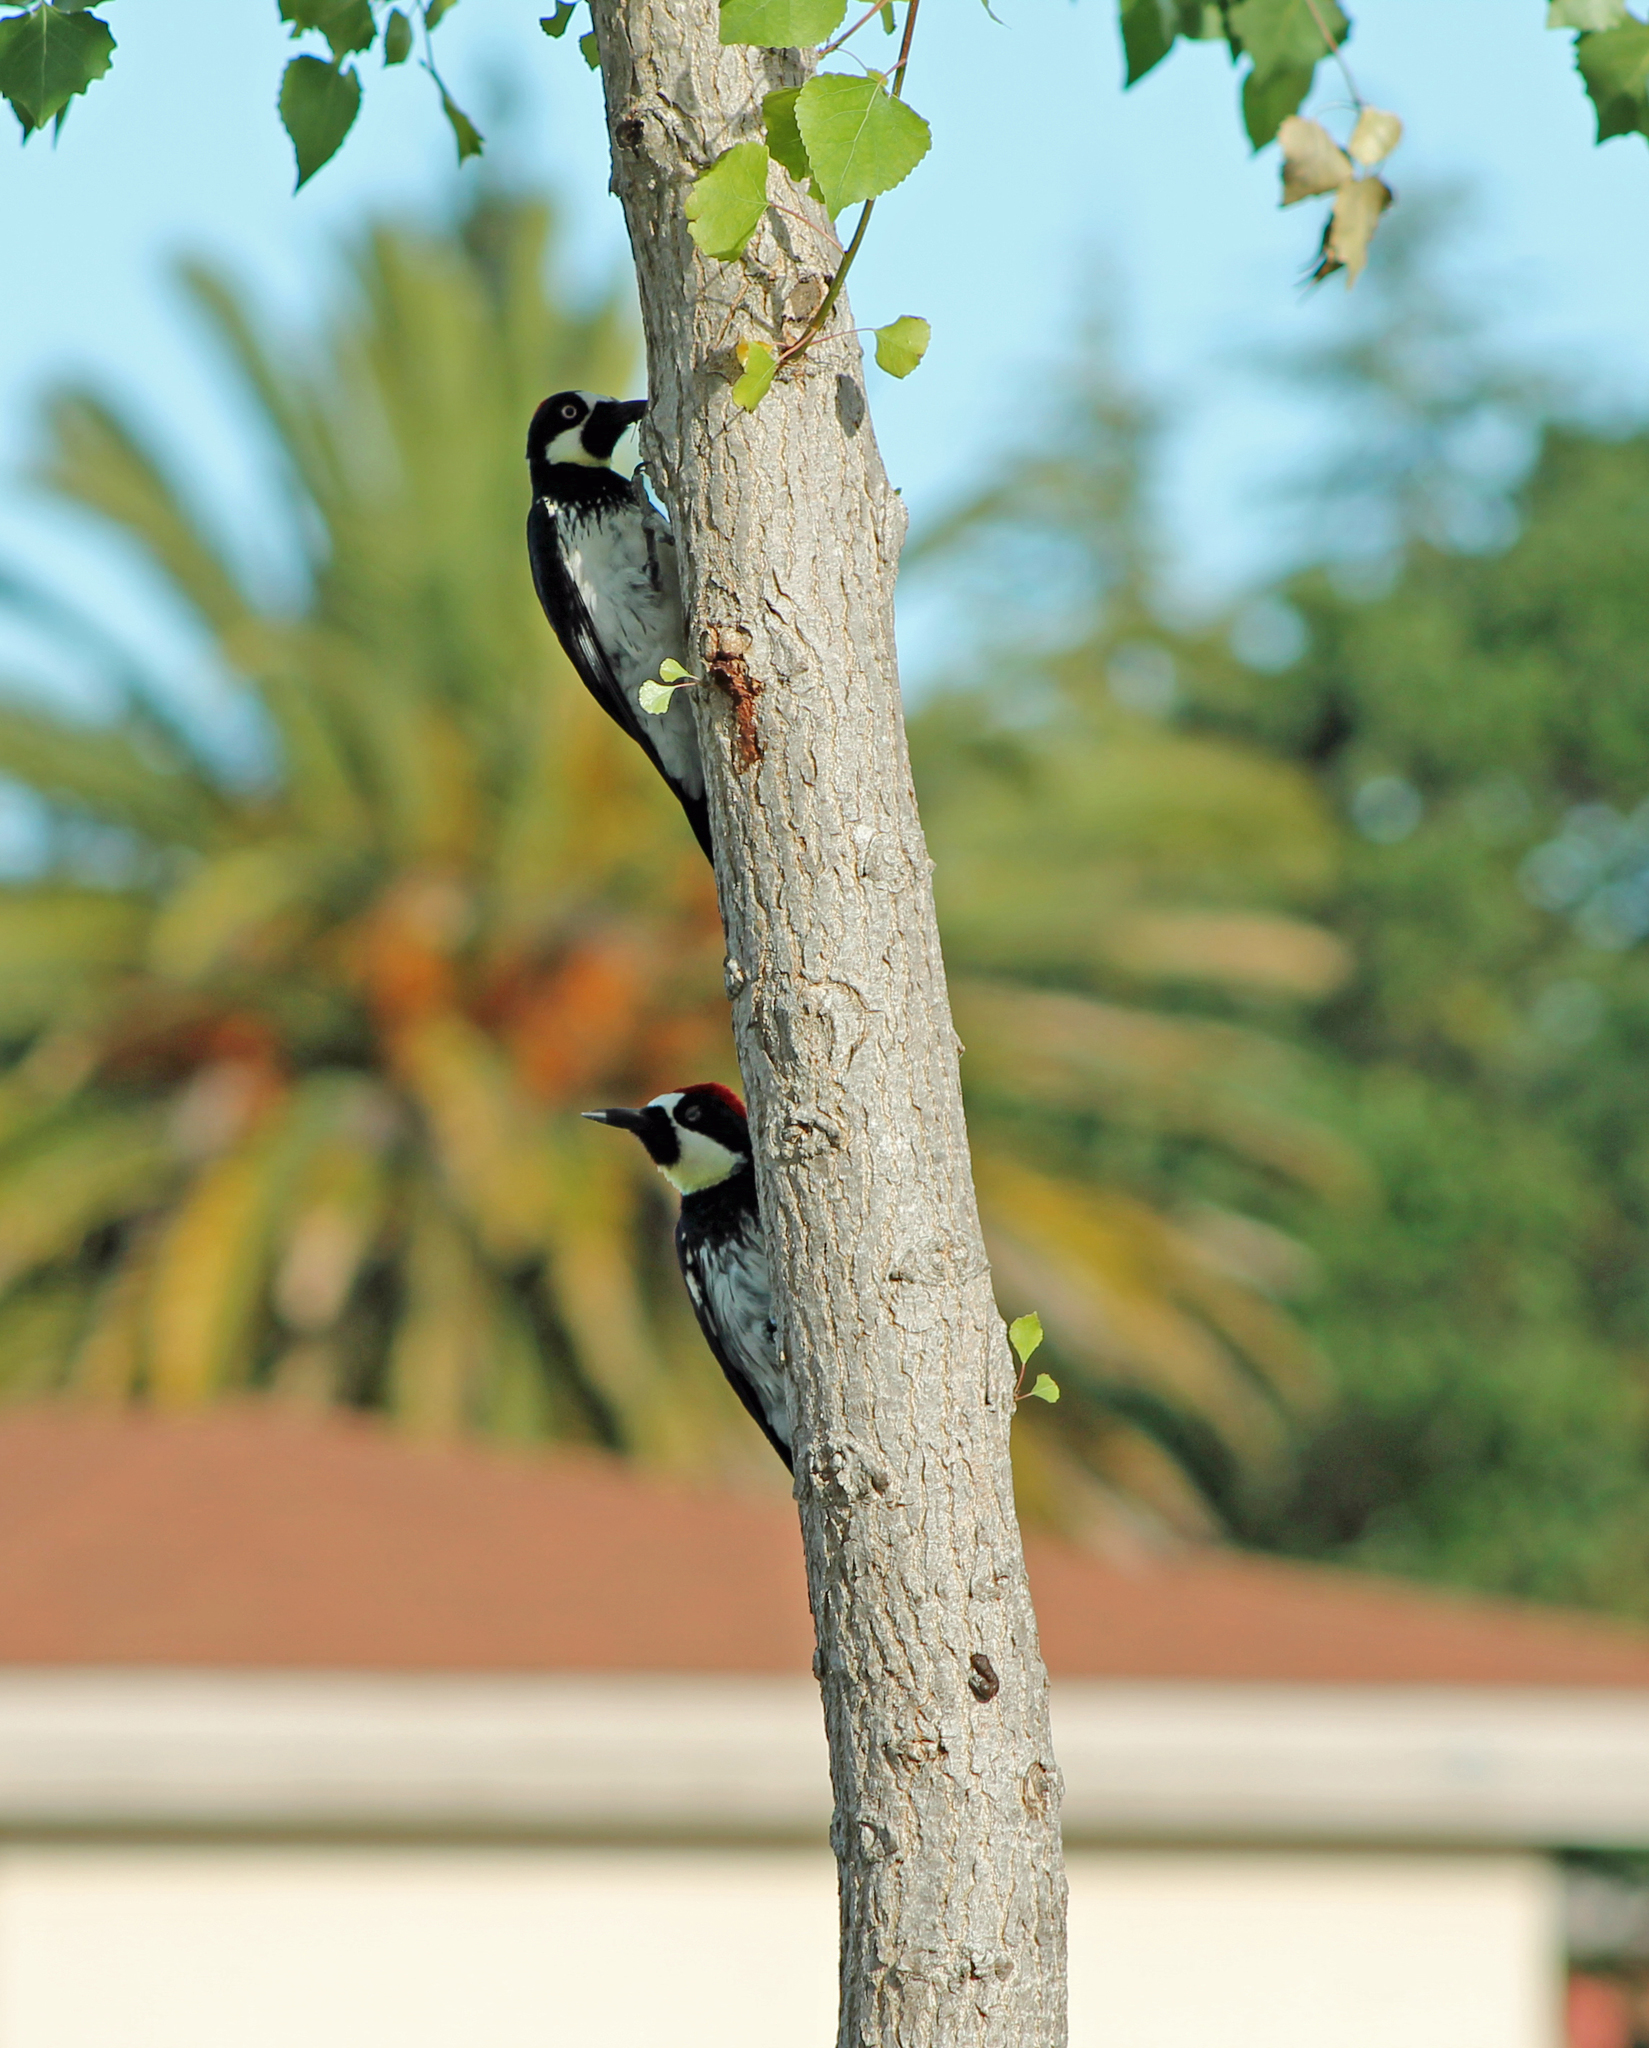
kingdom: Animalia
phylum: Chordata
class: Aves
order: Piciformes
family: Picidae
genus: Melanerpes
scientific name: Melanerpes formicivorus
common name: Acorn woodpecker
